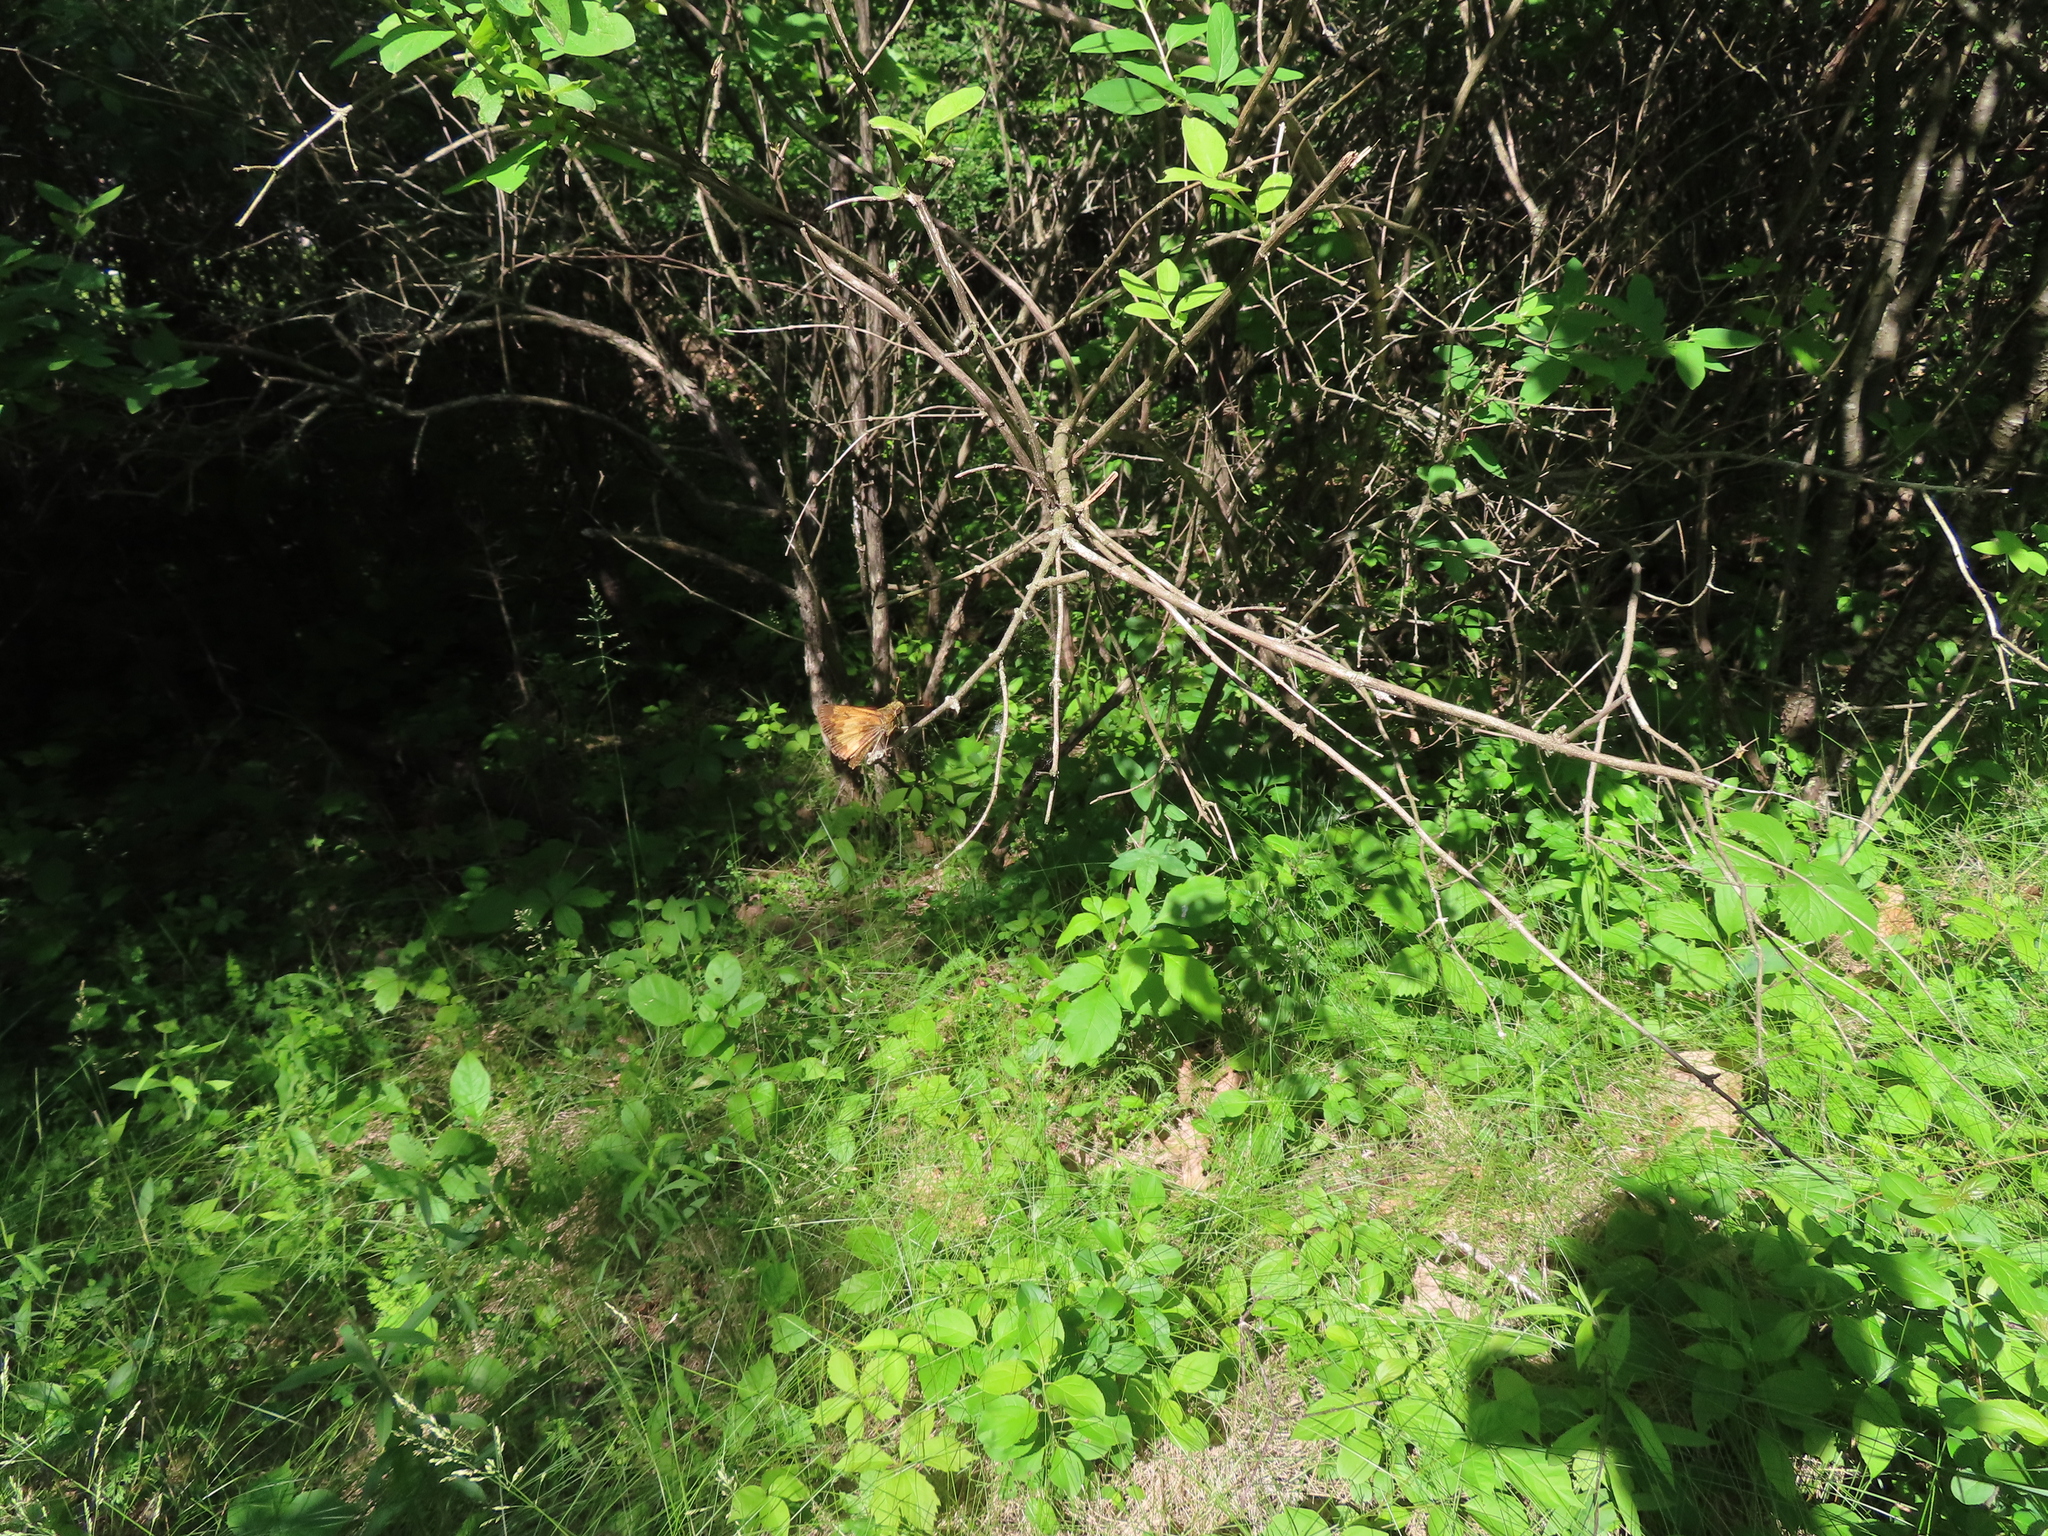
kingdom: Animalia
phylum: Arthropoda
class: Insecta
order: Lepidoptera
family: Hesperiidae
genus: Lon
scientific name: Lon hobomok
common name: Hobomok skipper
